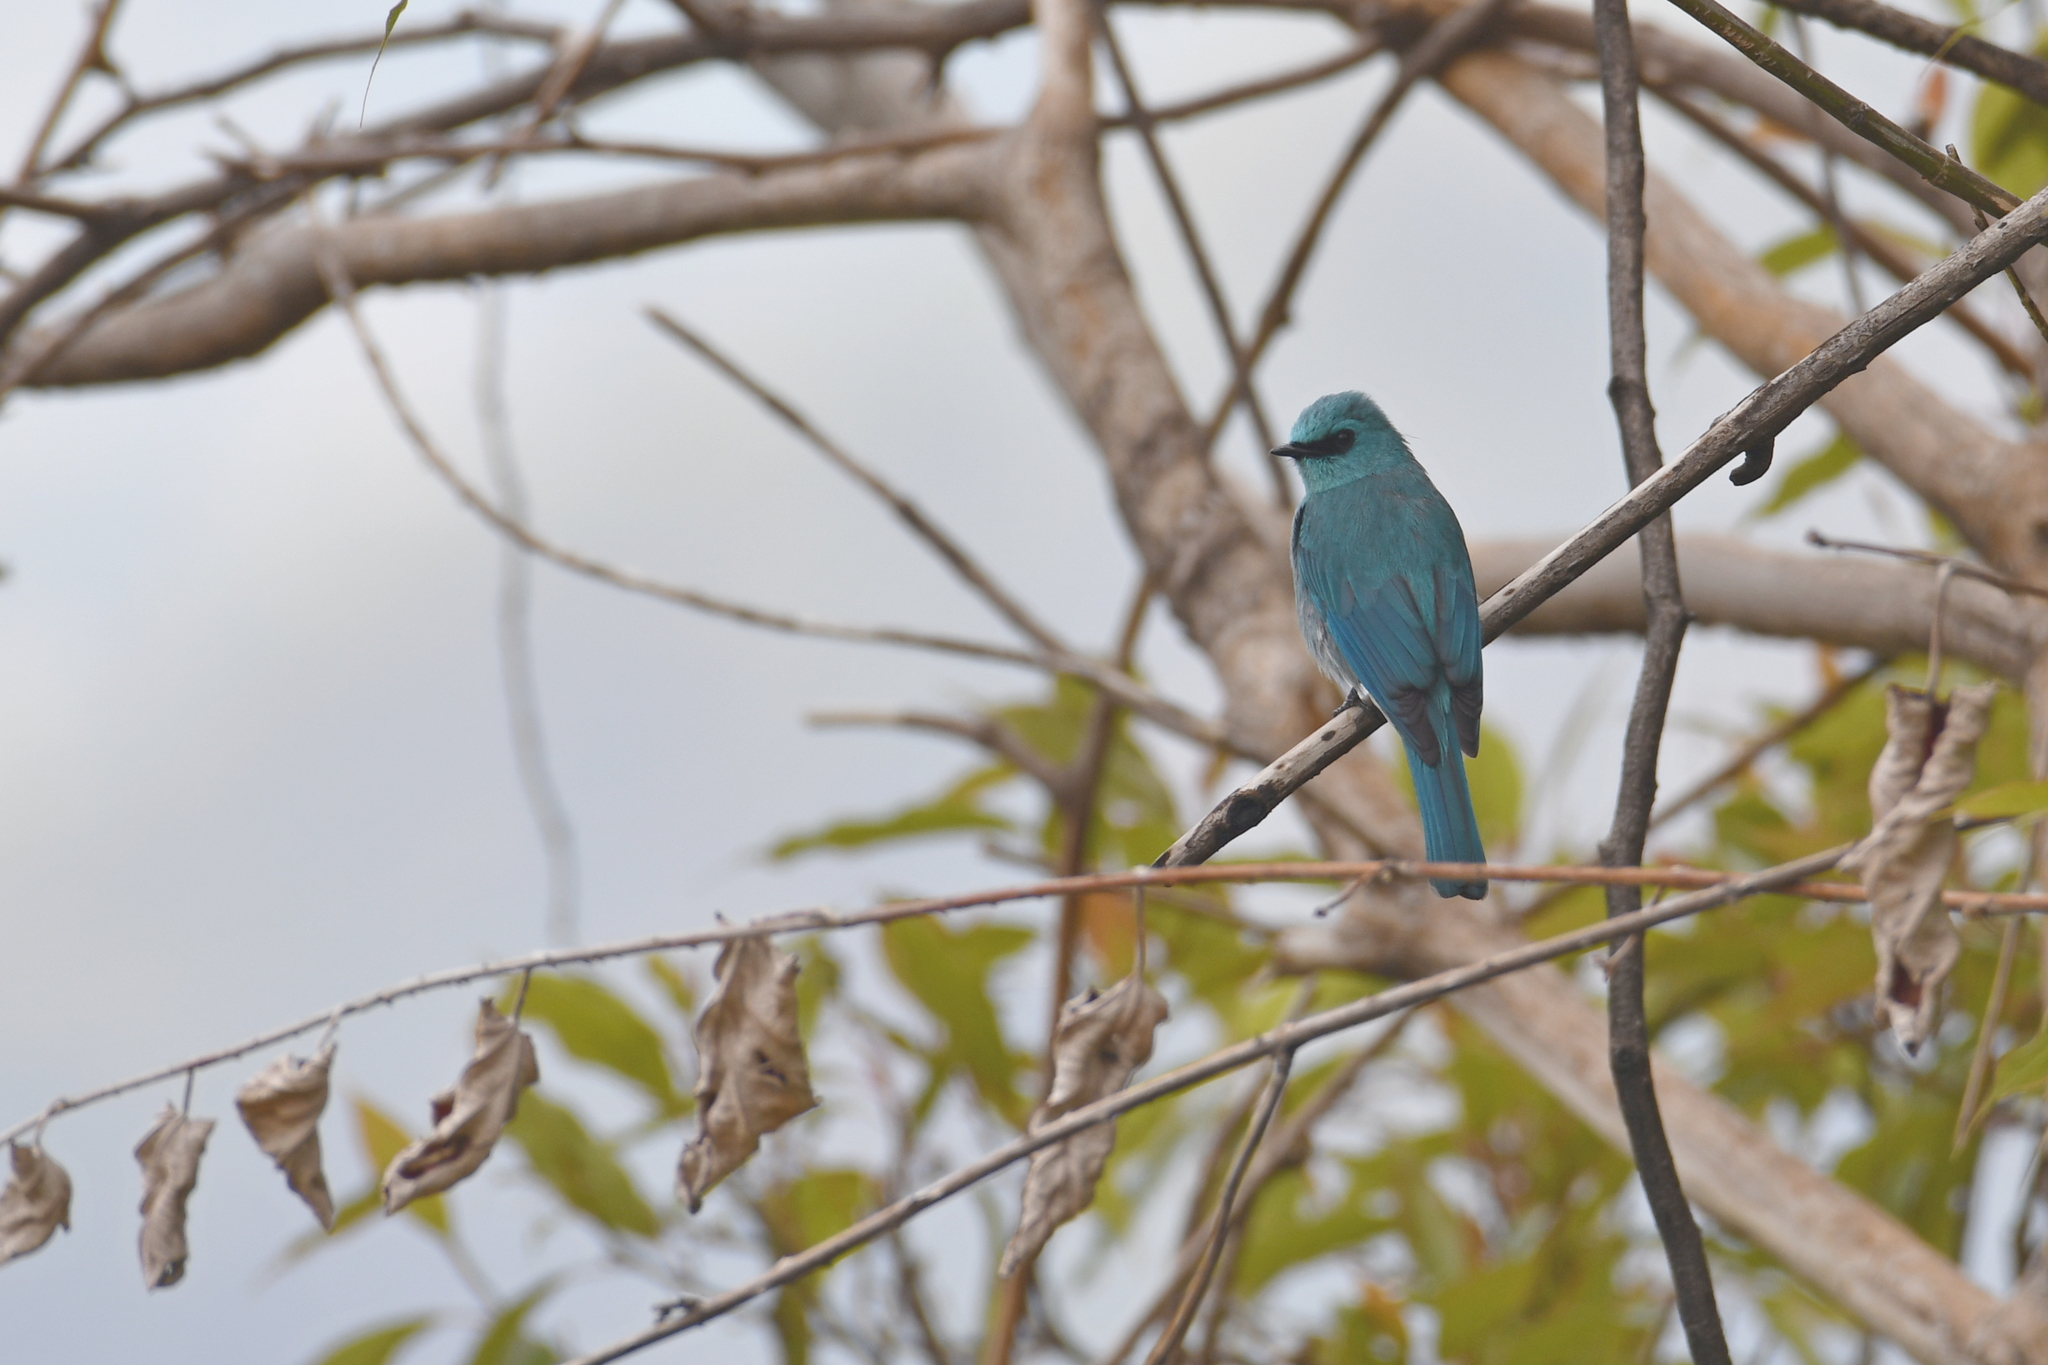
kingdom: Animalia
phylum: Chordata
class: Aves
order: Passeriformes
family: Muscicapidae
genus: Eumyias
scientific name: Eumyias thalassinus
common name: Verditer flycatcher
